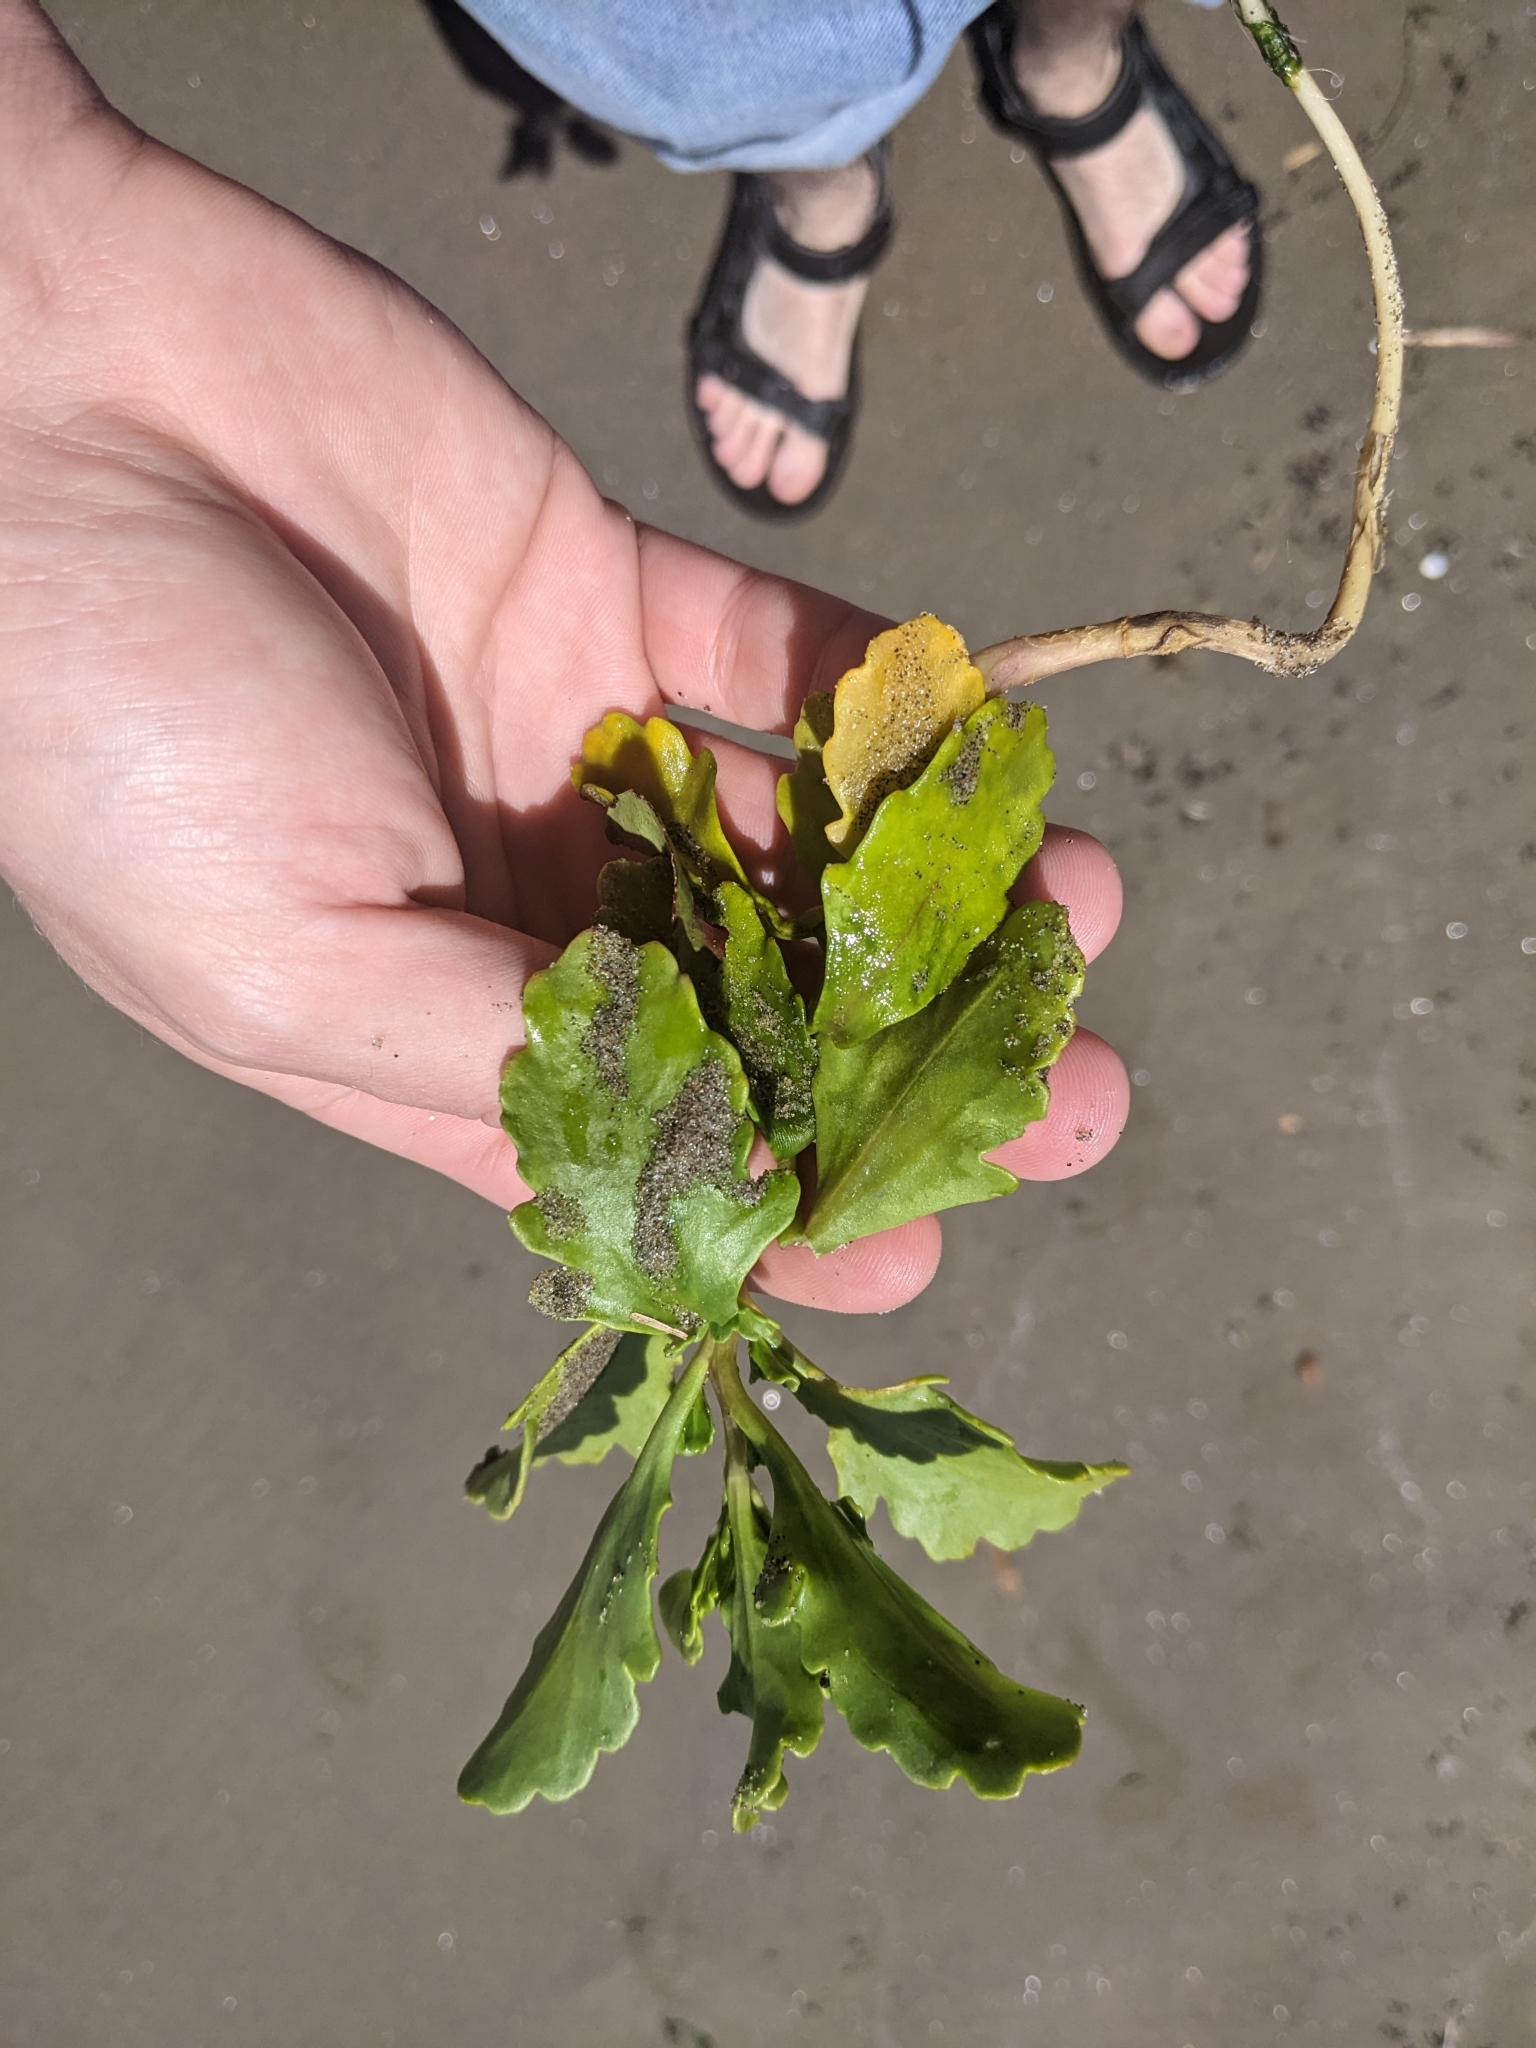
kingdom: Plantae
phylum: Tracheophyta
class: Magnoliopsida
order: Brassicales
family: Brassicaceae
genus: Cakile
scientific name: Cakile edentula
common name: American sea rocket
